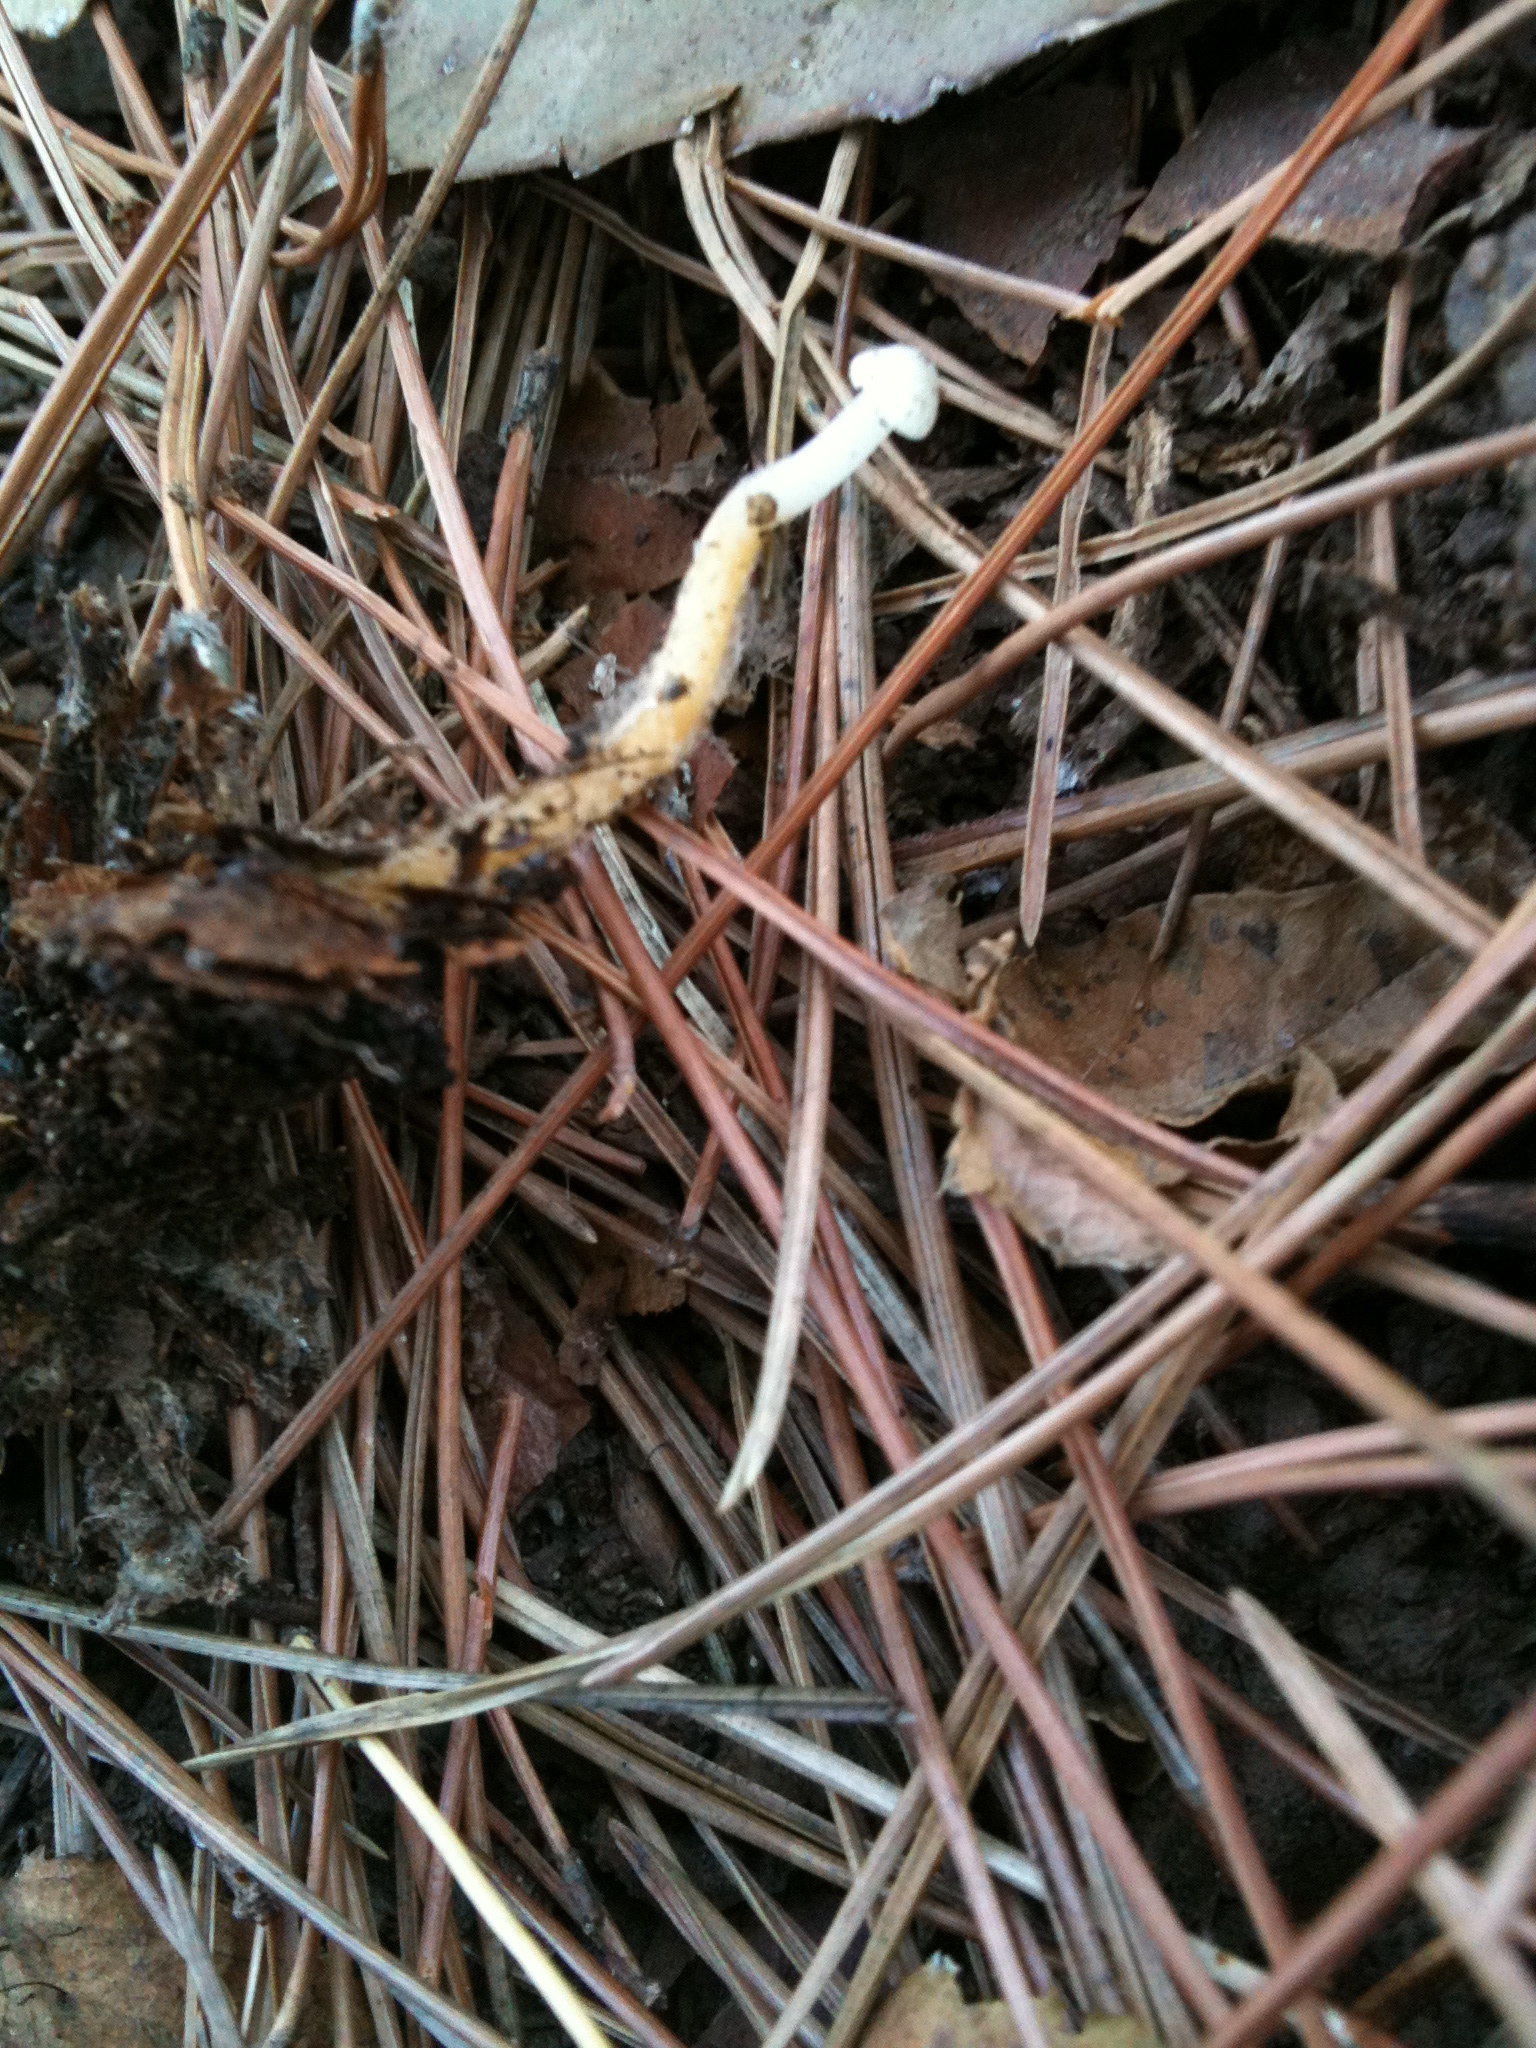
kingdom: Fungi
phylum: Basidiomycota
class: Agaricomycetes
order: Agaricales
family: Physalacriaceae
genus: Strobilurus
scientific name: Strobilurus stephanocystis
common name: Russian conecap
